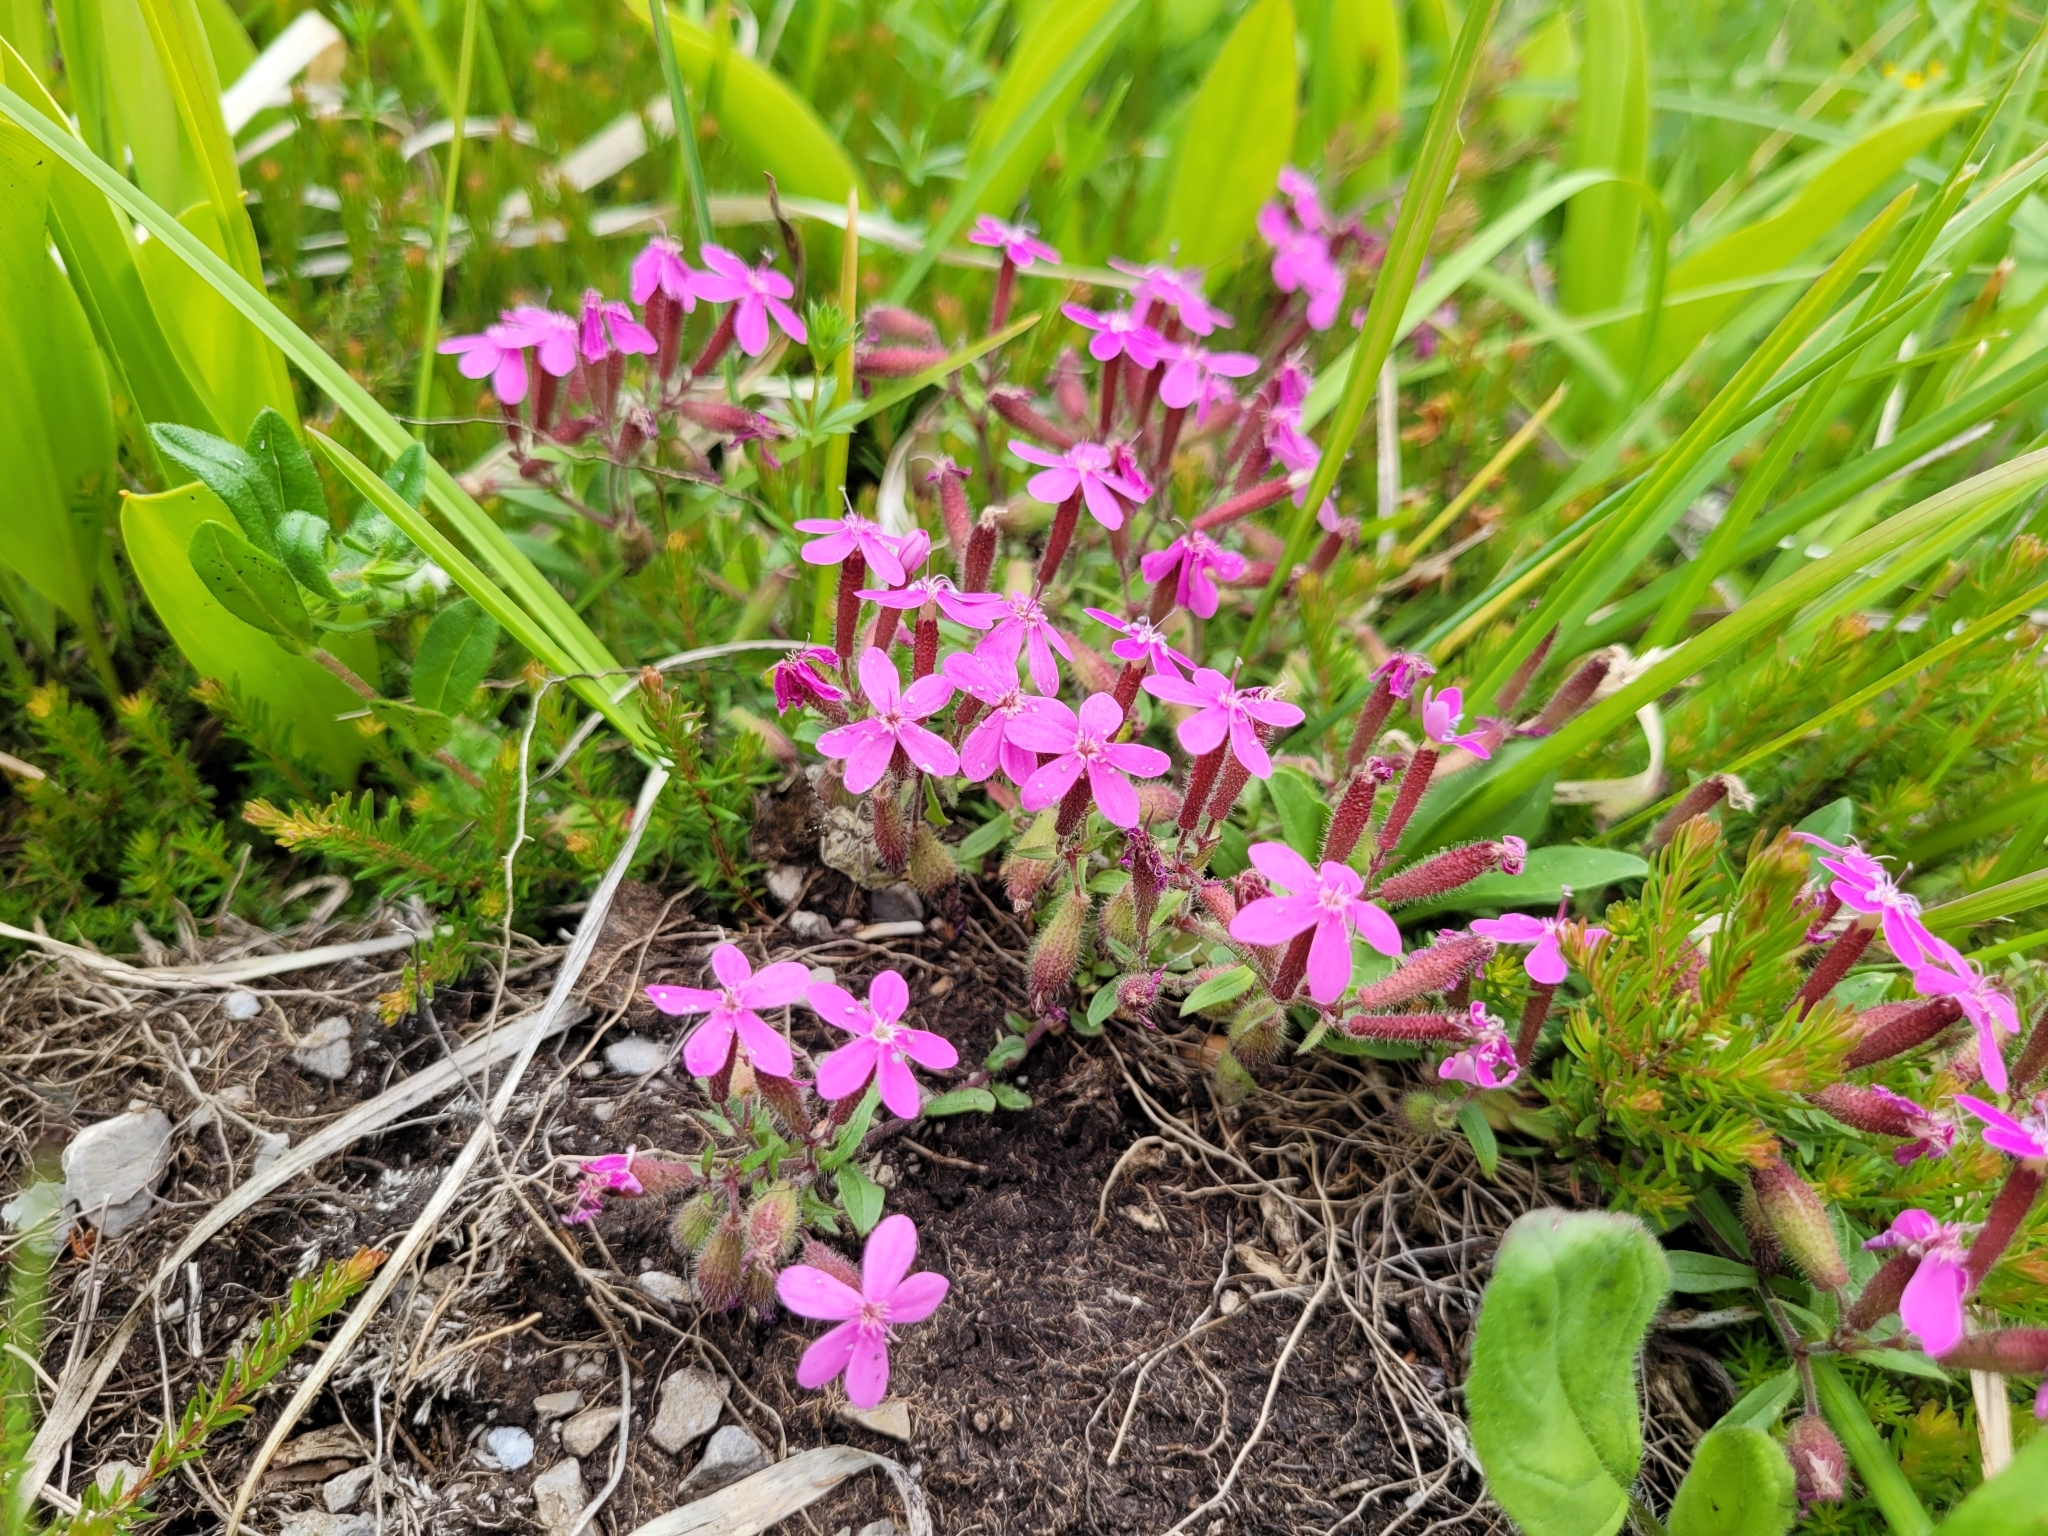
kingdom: Plantae
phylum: Tracheophyta
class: Magnoliopsida
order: Caryophyllales
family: Caryophyllaceae
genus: Saponaria
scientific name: Saponaria ocymoides
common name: Rock soapwort
